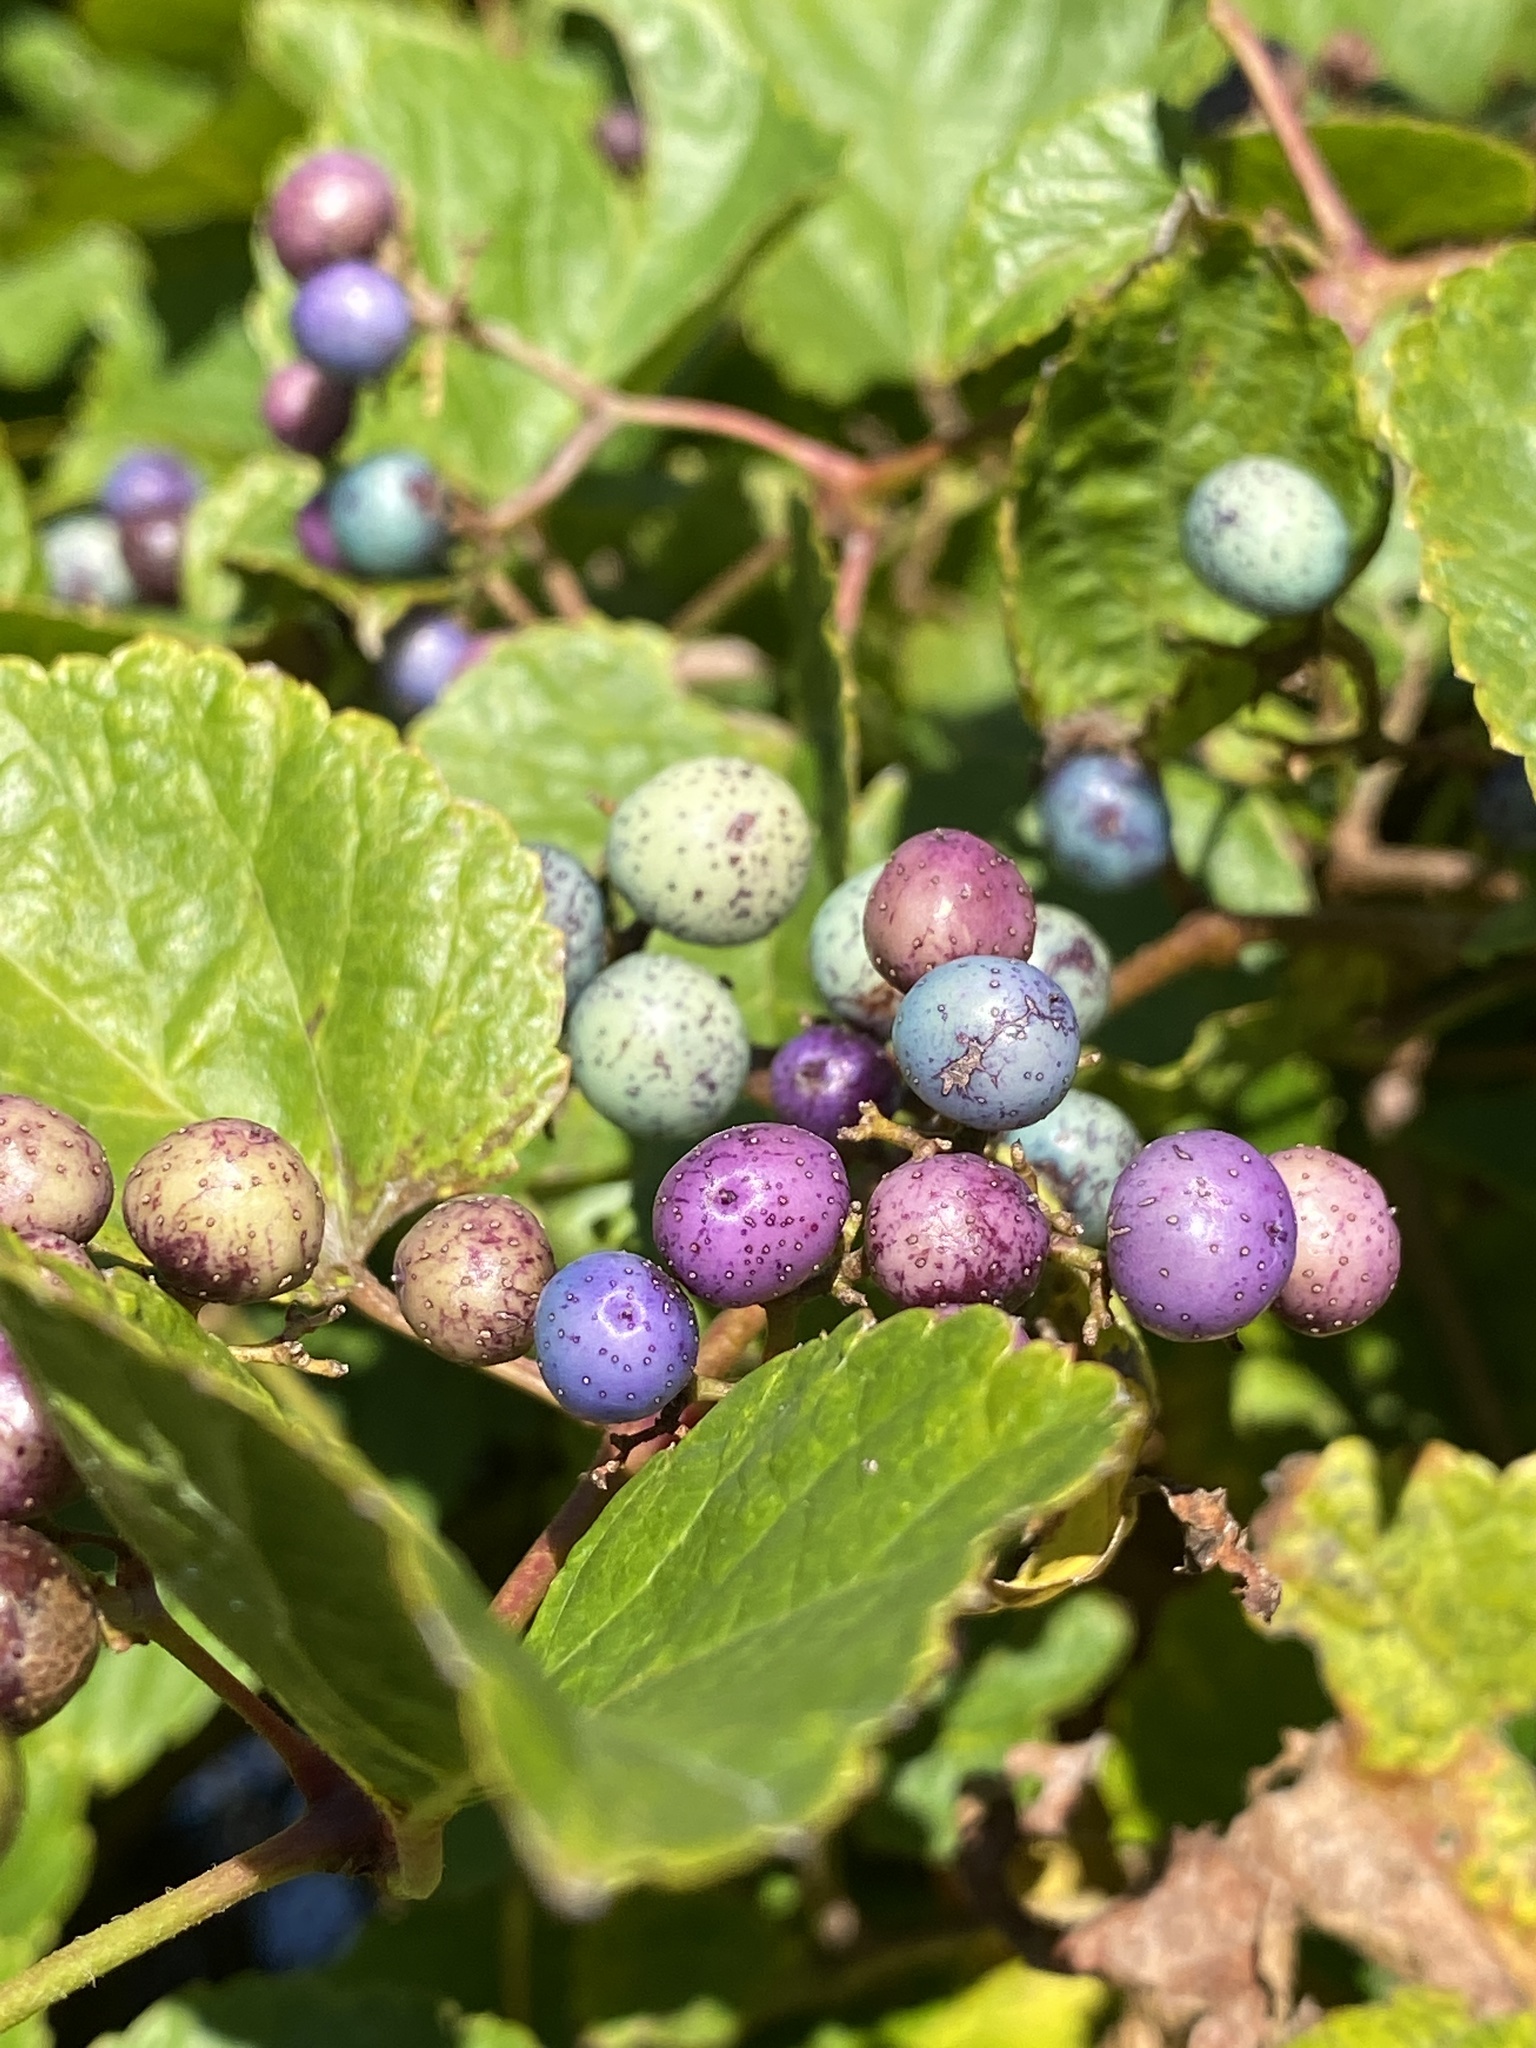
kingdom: Plantae
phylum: Tracheophyta
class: Magnoliopsida
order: Vitales
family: Vitaceae
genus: Ampelopsis
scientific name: Ampelopsis glandulosa
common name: Amur peppervine
